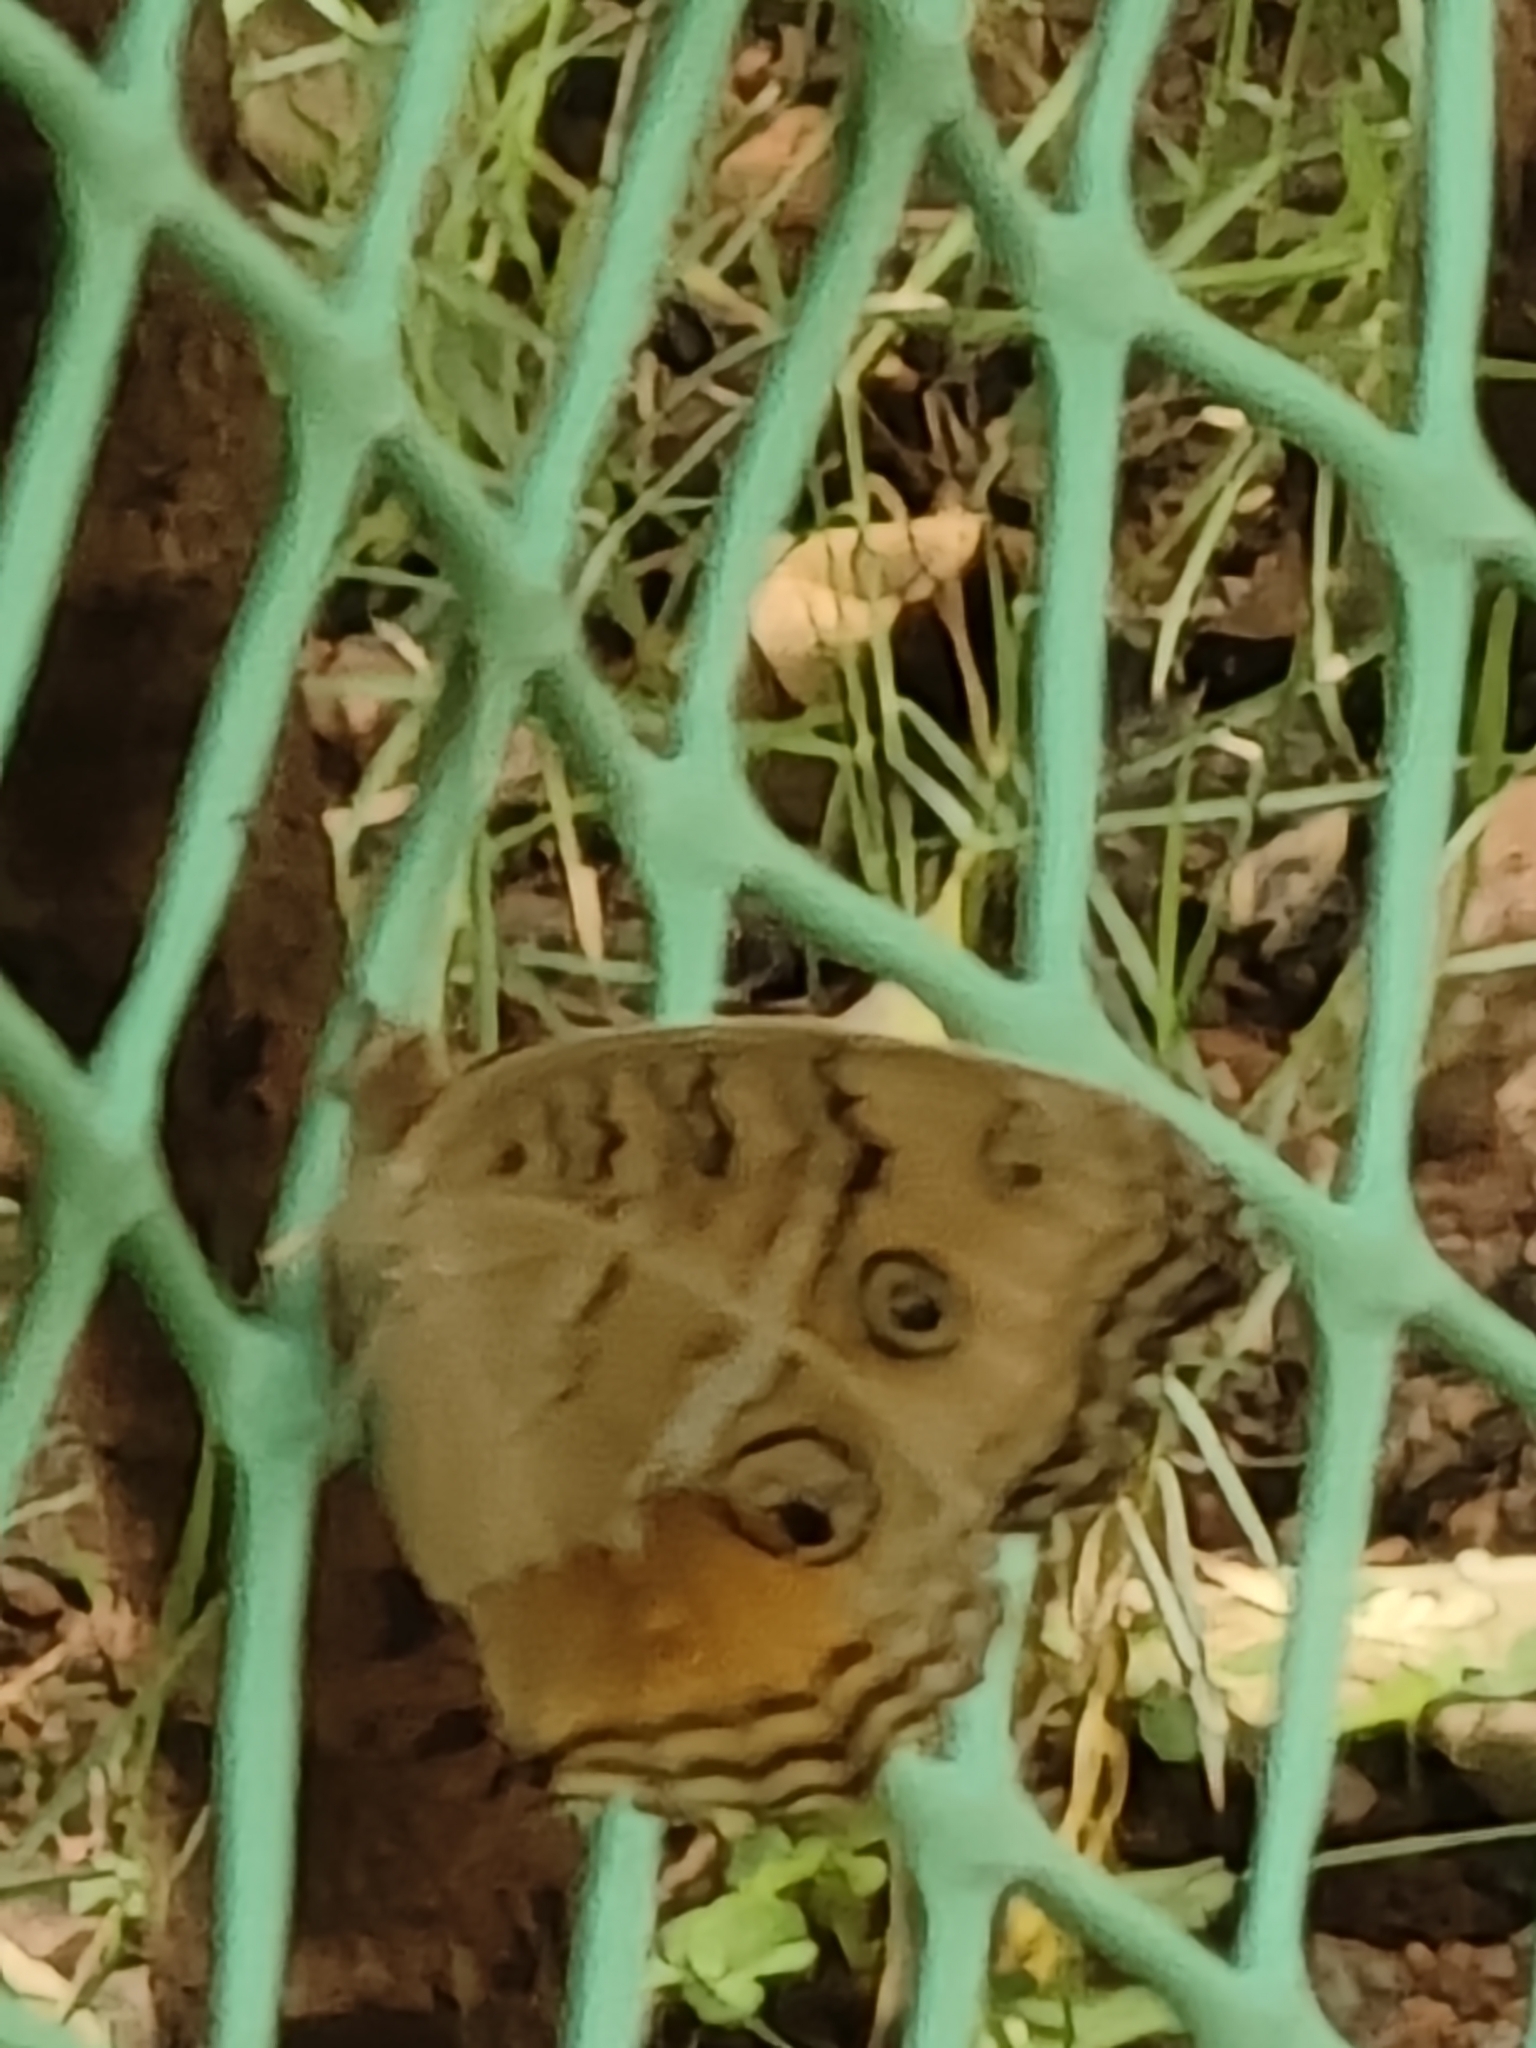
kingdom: Animalia
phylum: Arthropoda
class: Insecta
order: Lepidoptera
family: Nymphalidae
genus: Junonia
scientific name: Junonia almana
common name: Peacock pansy
